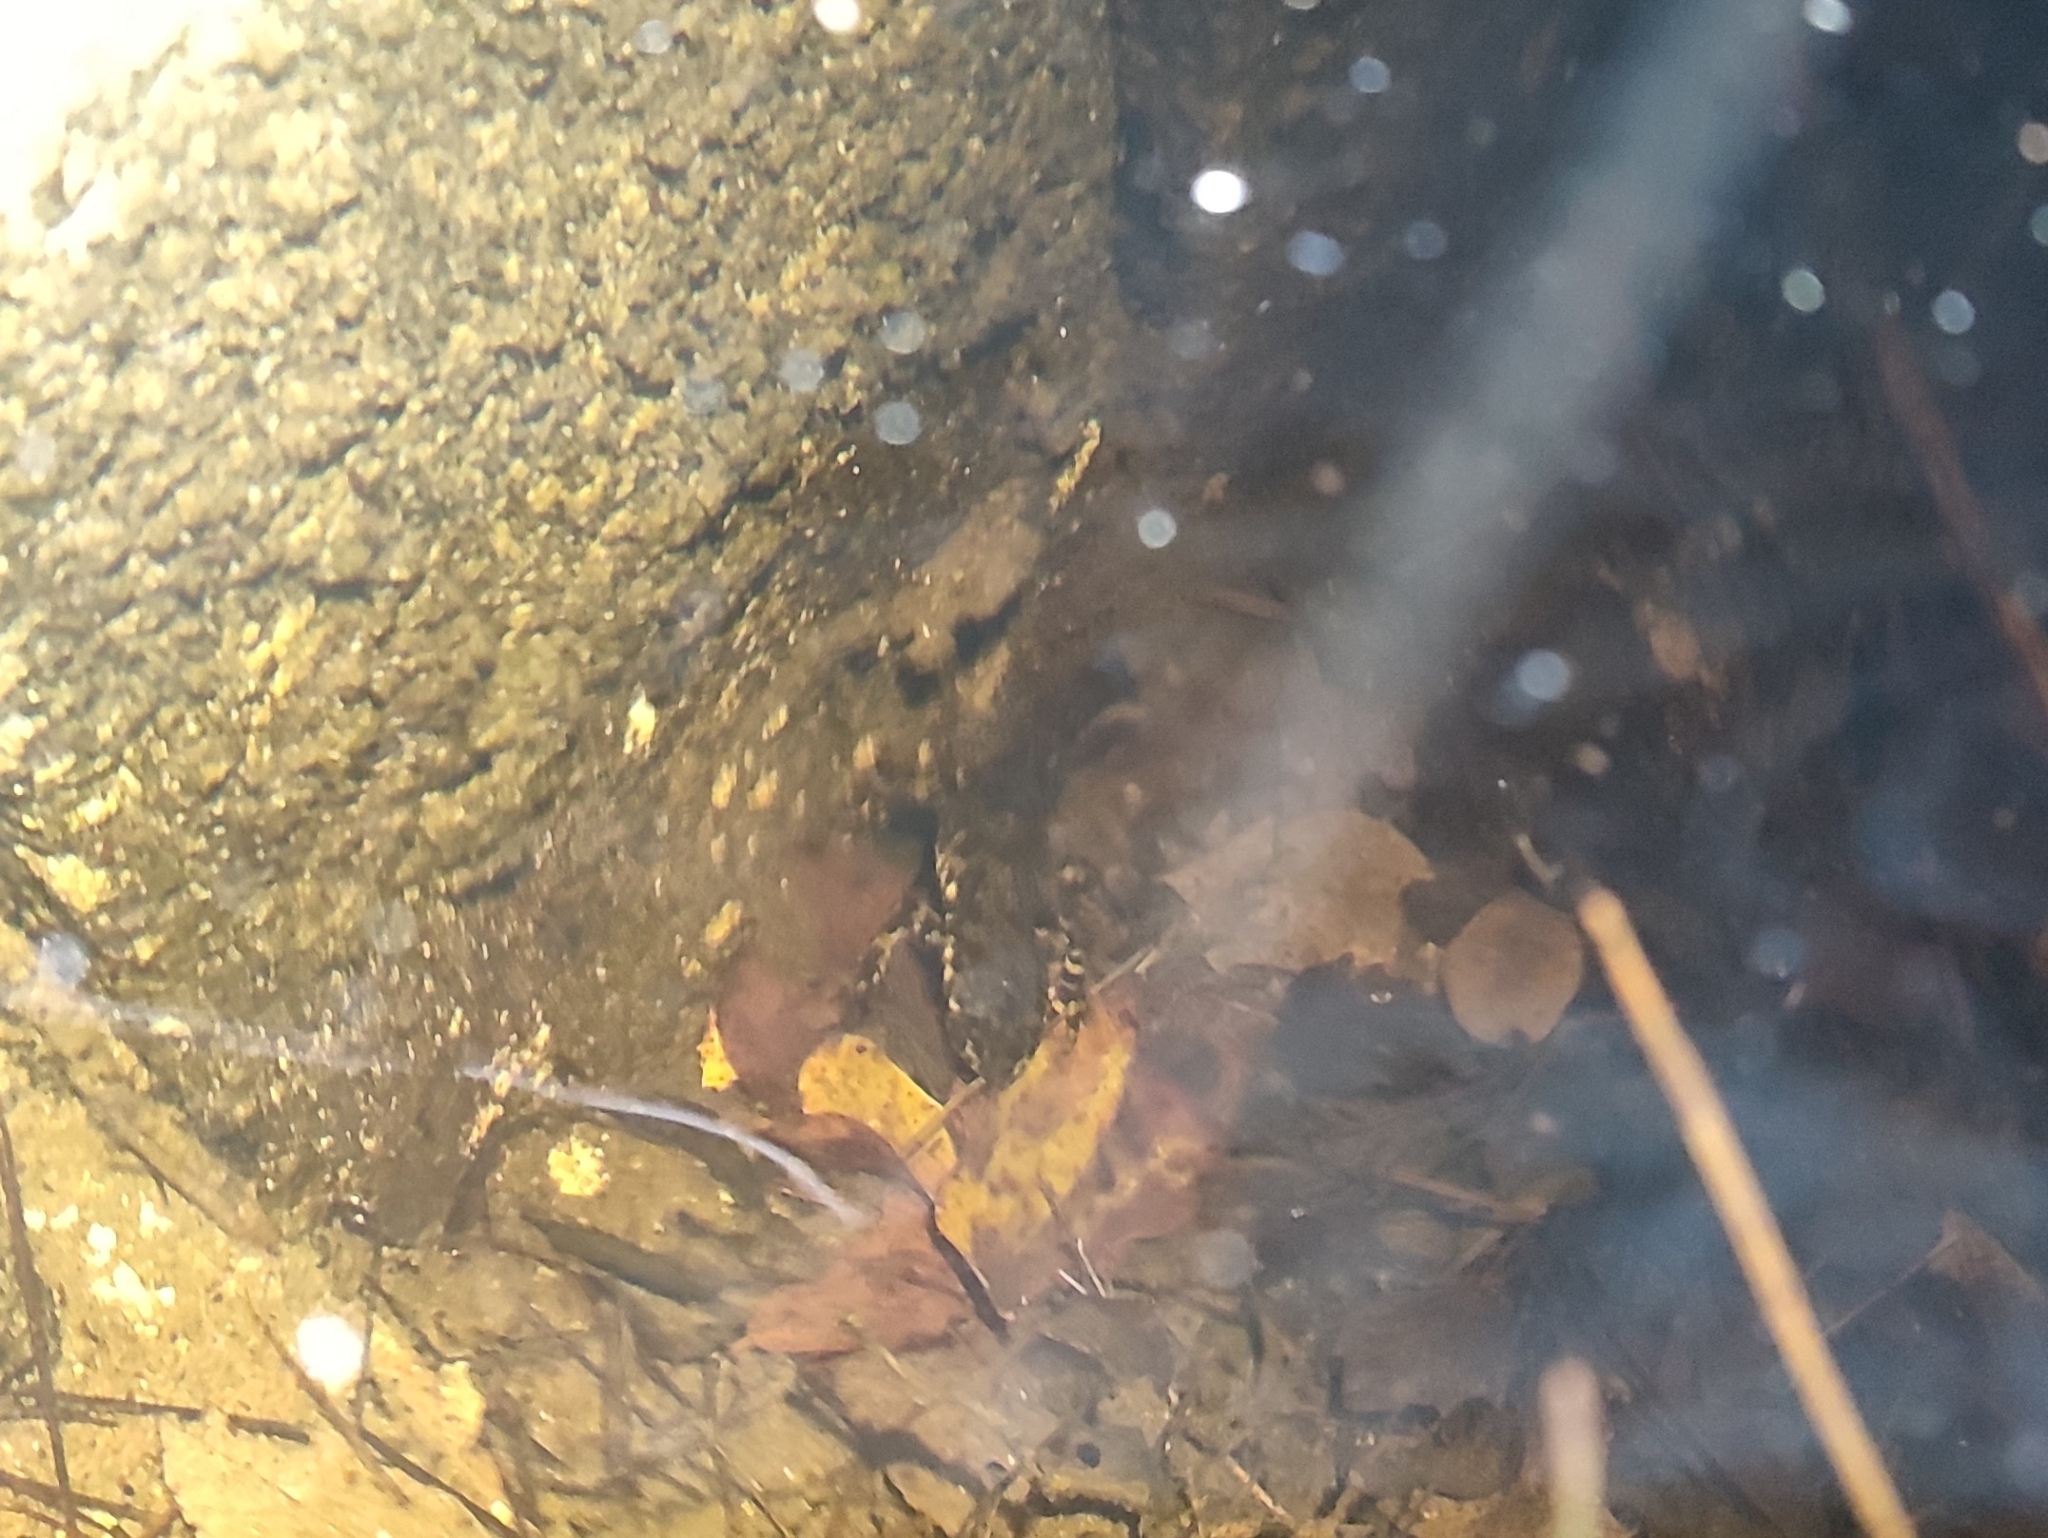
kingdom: Animalia
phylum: Chordata
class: Amphibia
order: Caudata
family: Salamandridae
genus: Triturus
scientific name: Triturus marmoratus
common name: Marbled newt
